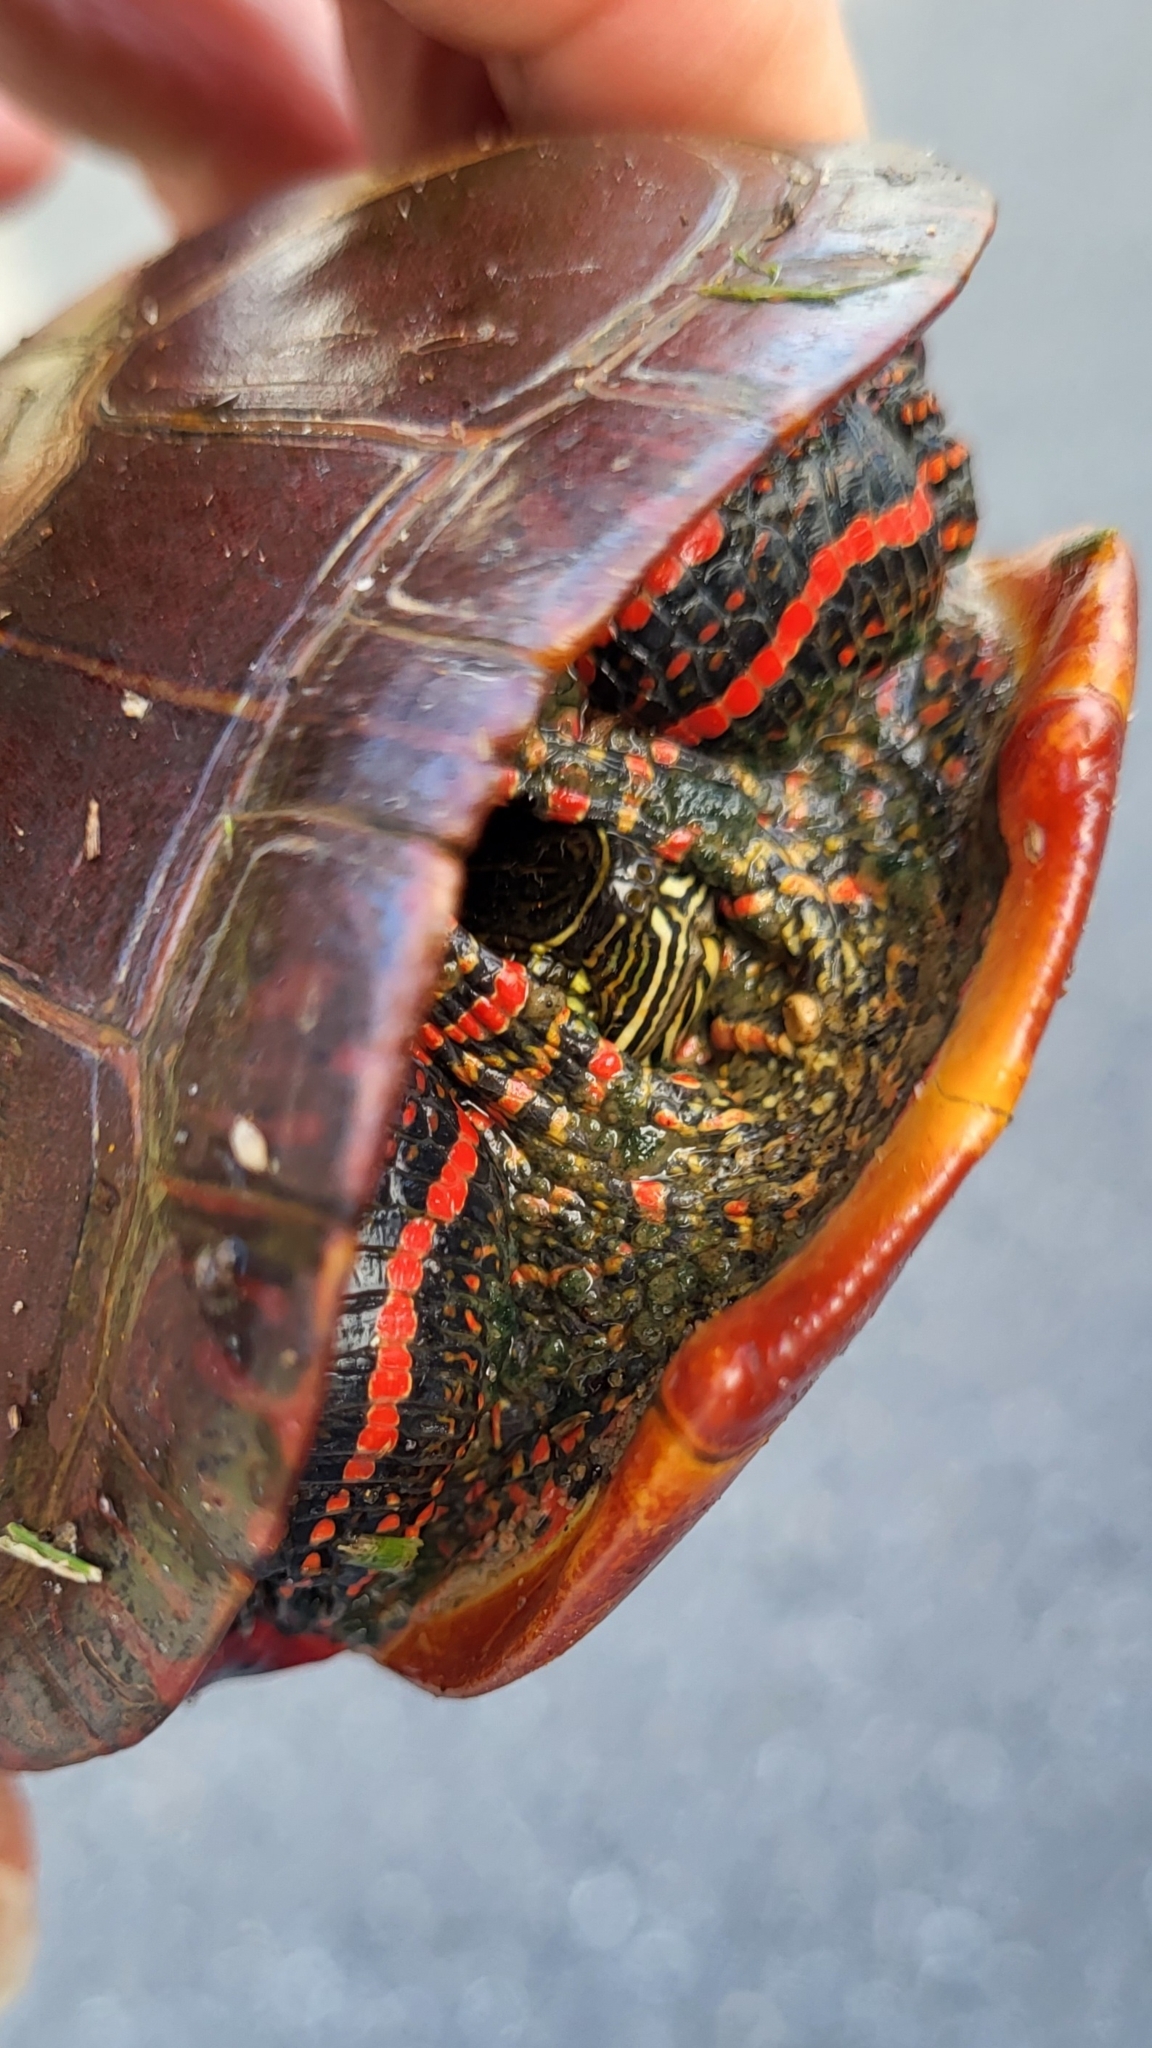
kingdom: Animalia
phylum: Chordata
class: Testudines
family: Emydidae
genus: Chrysemys
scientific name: Chrysemys picta
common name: Painted turtle
